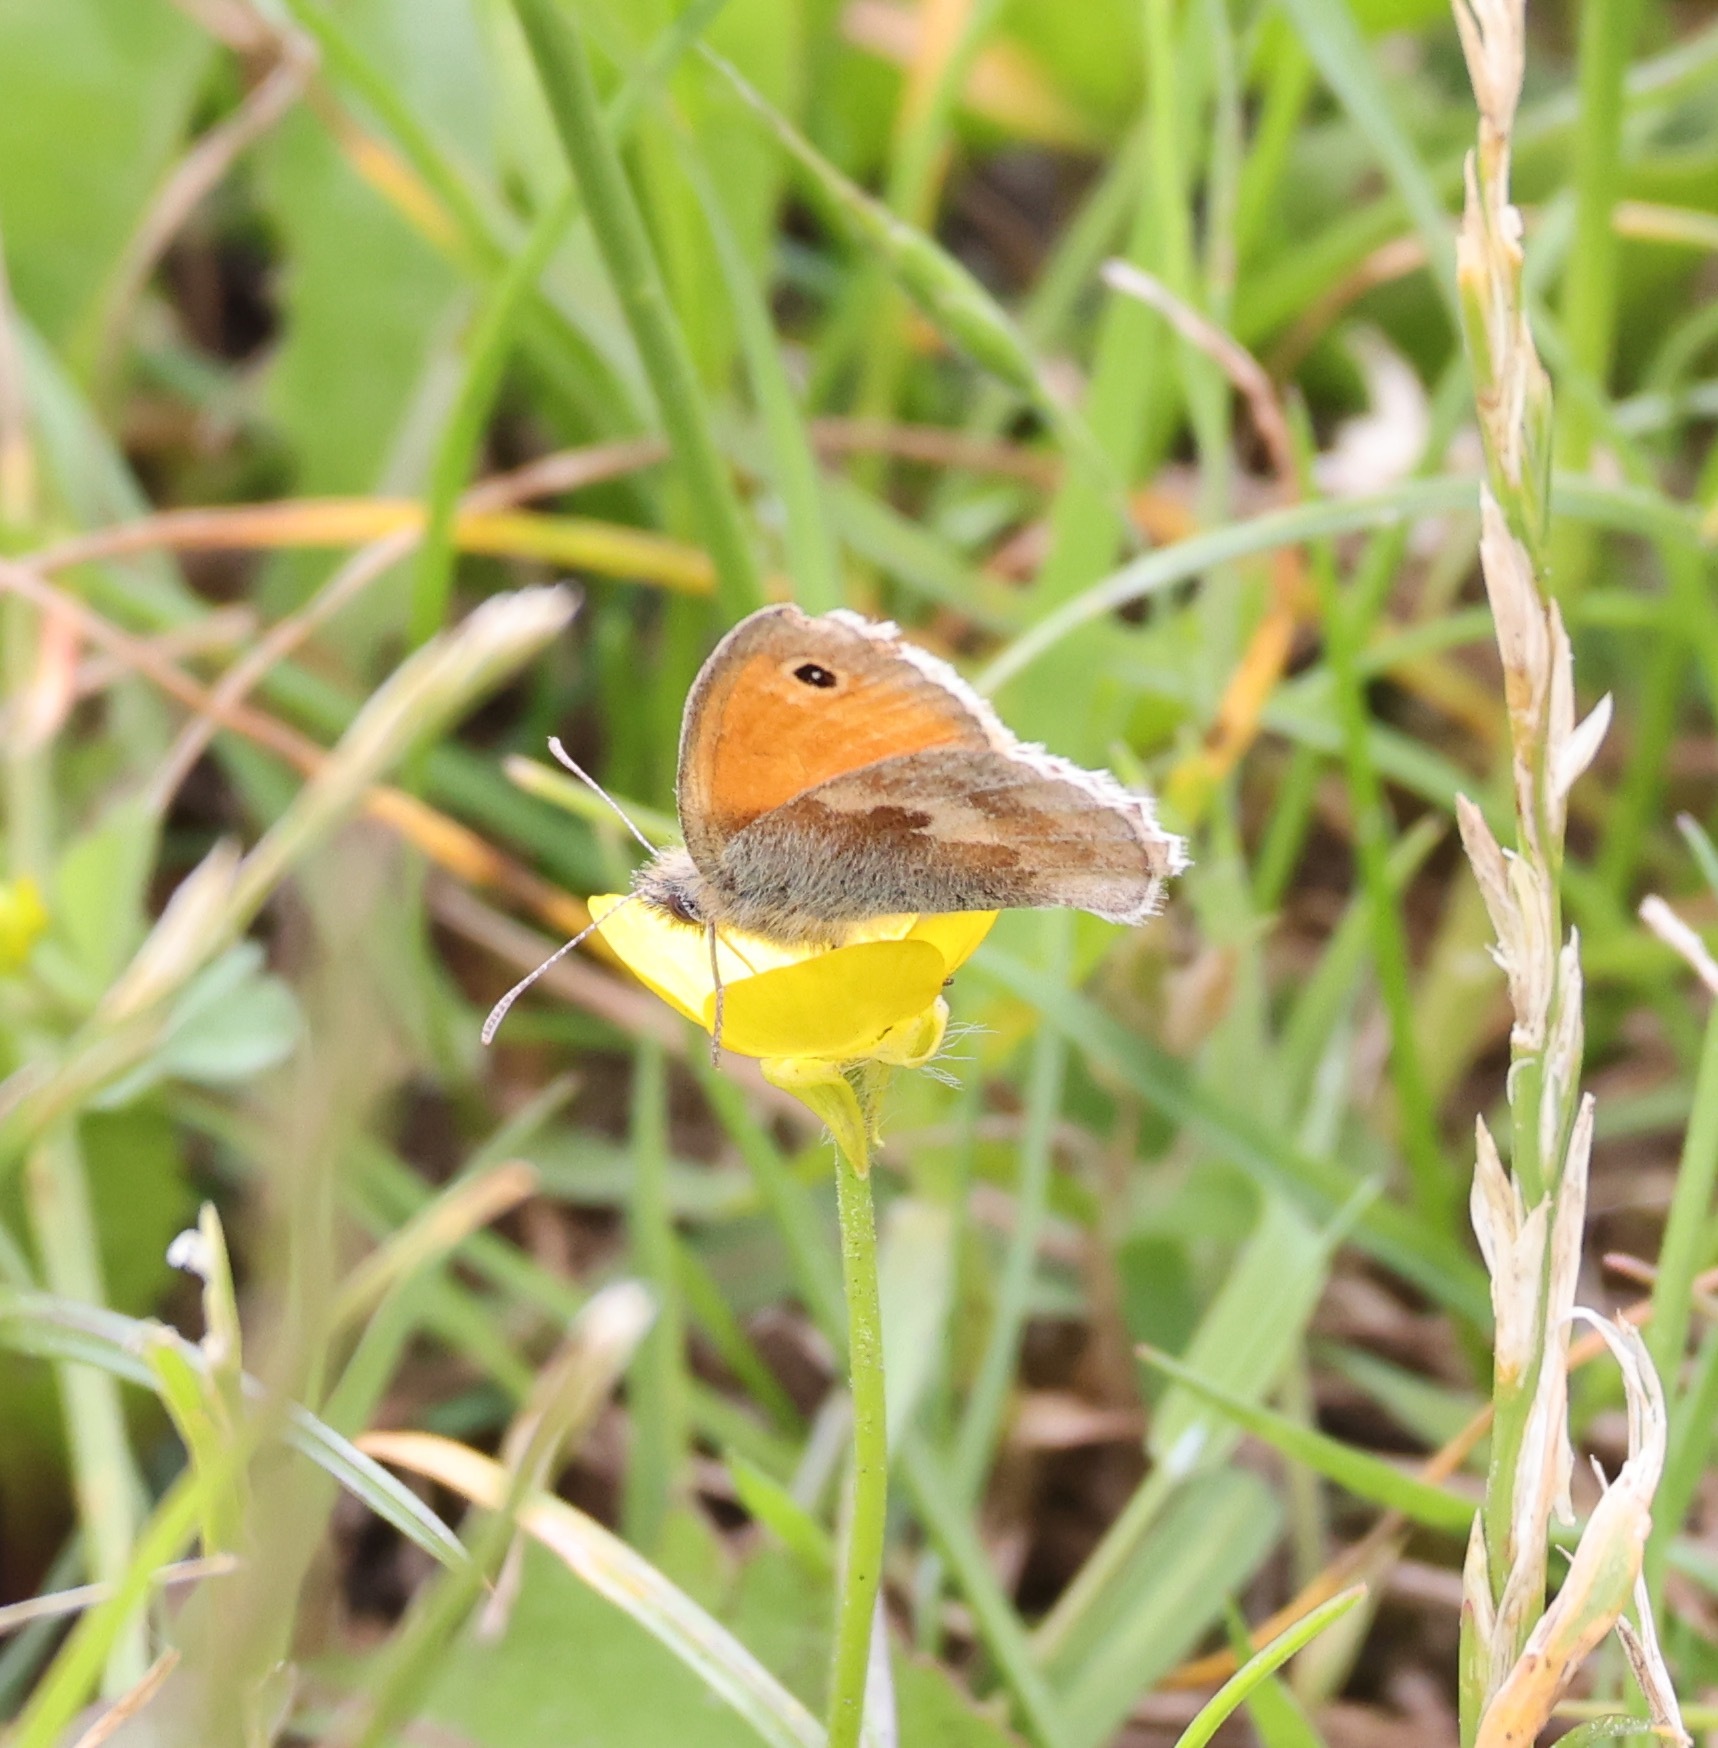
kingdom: Animalia
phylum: Arthropoda
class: Insecta
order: Lepidoptera
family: Nymphalidae
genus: Coenonympha
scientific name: Coenonympha pamphilus
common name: Small heath
